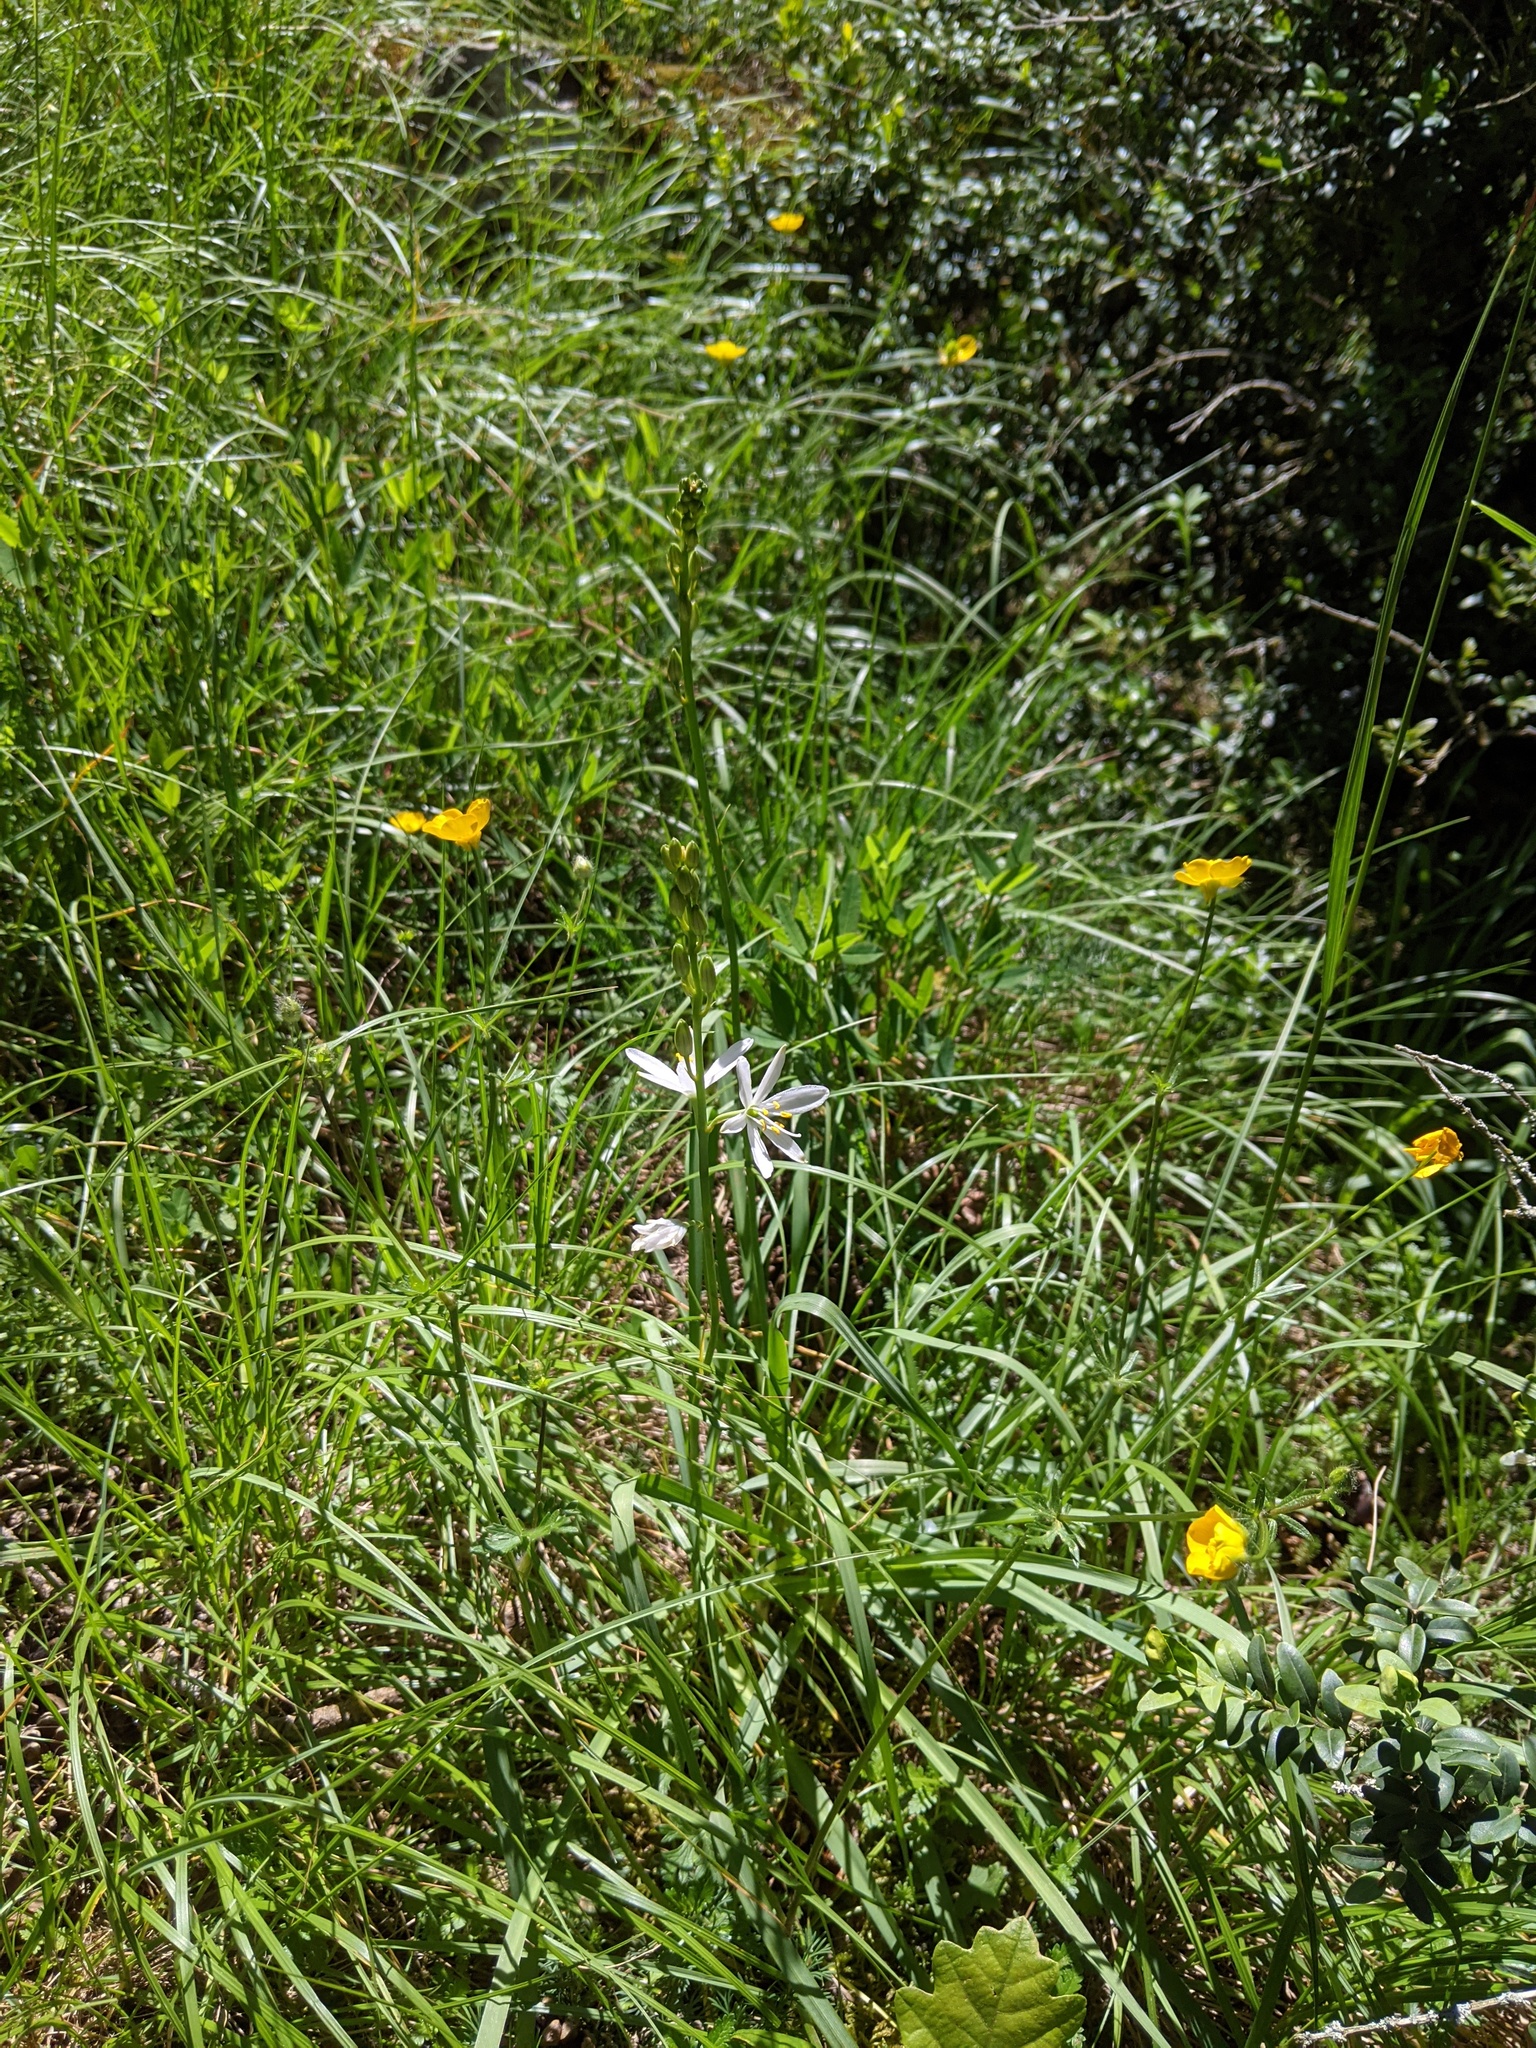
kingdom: Plantae
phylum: Tracheophyta
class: Liliopsida
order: Asparagales
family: Asparagaceae
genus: Anthericum
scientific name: Anthericum liliago
